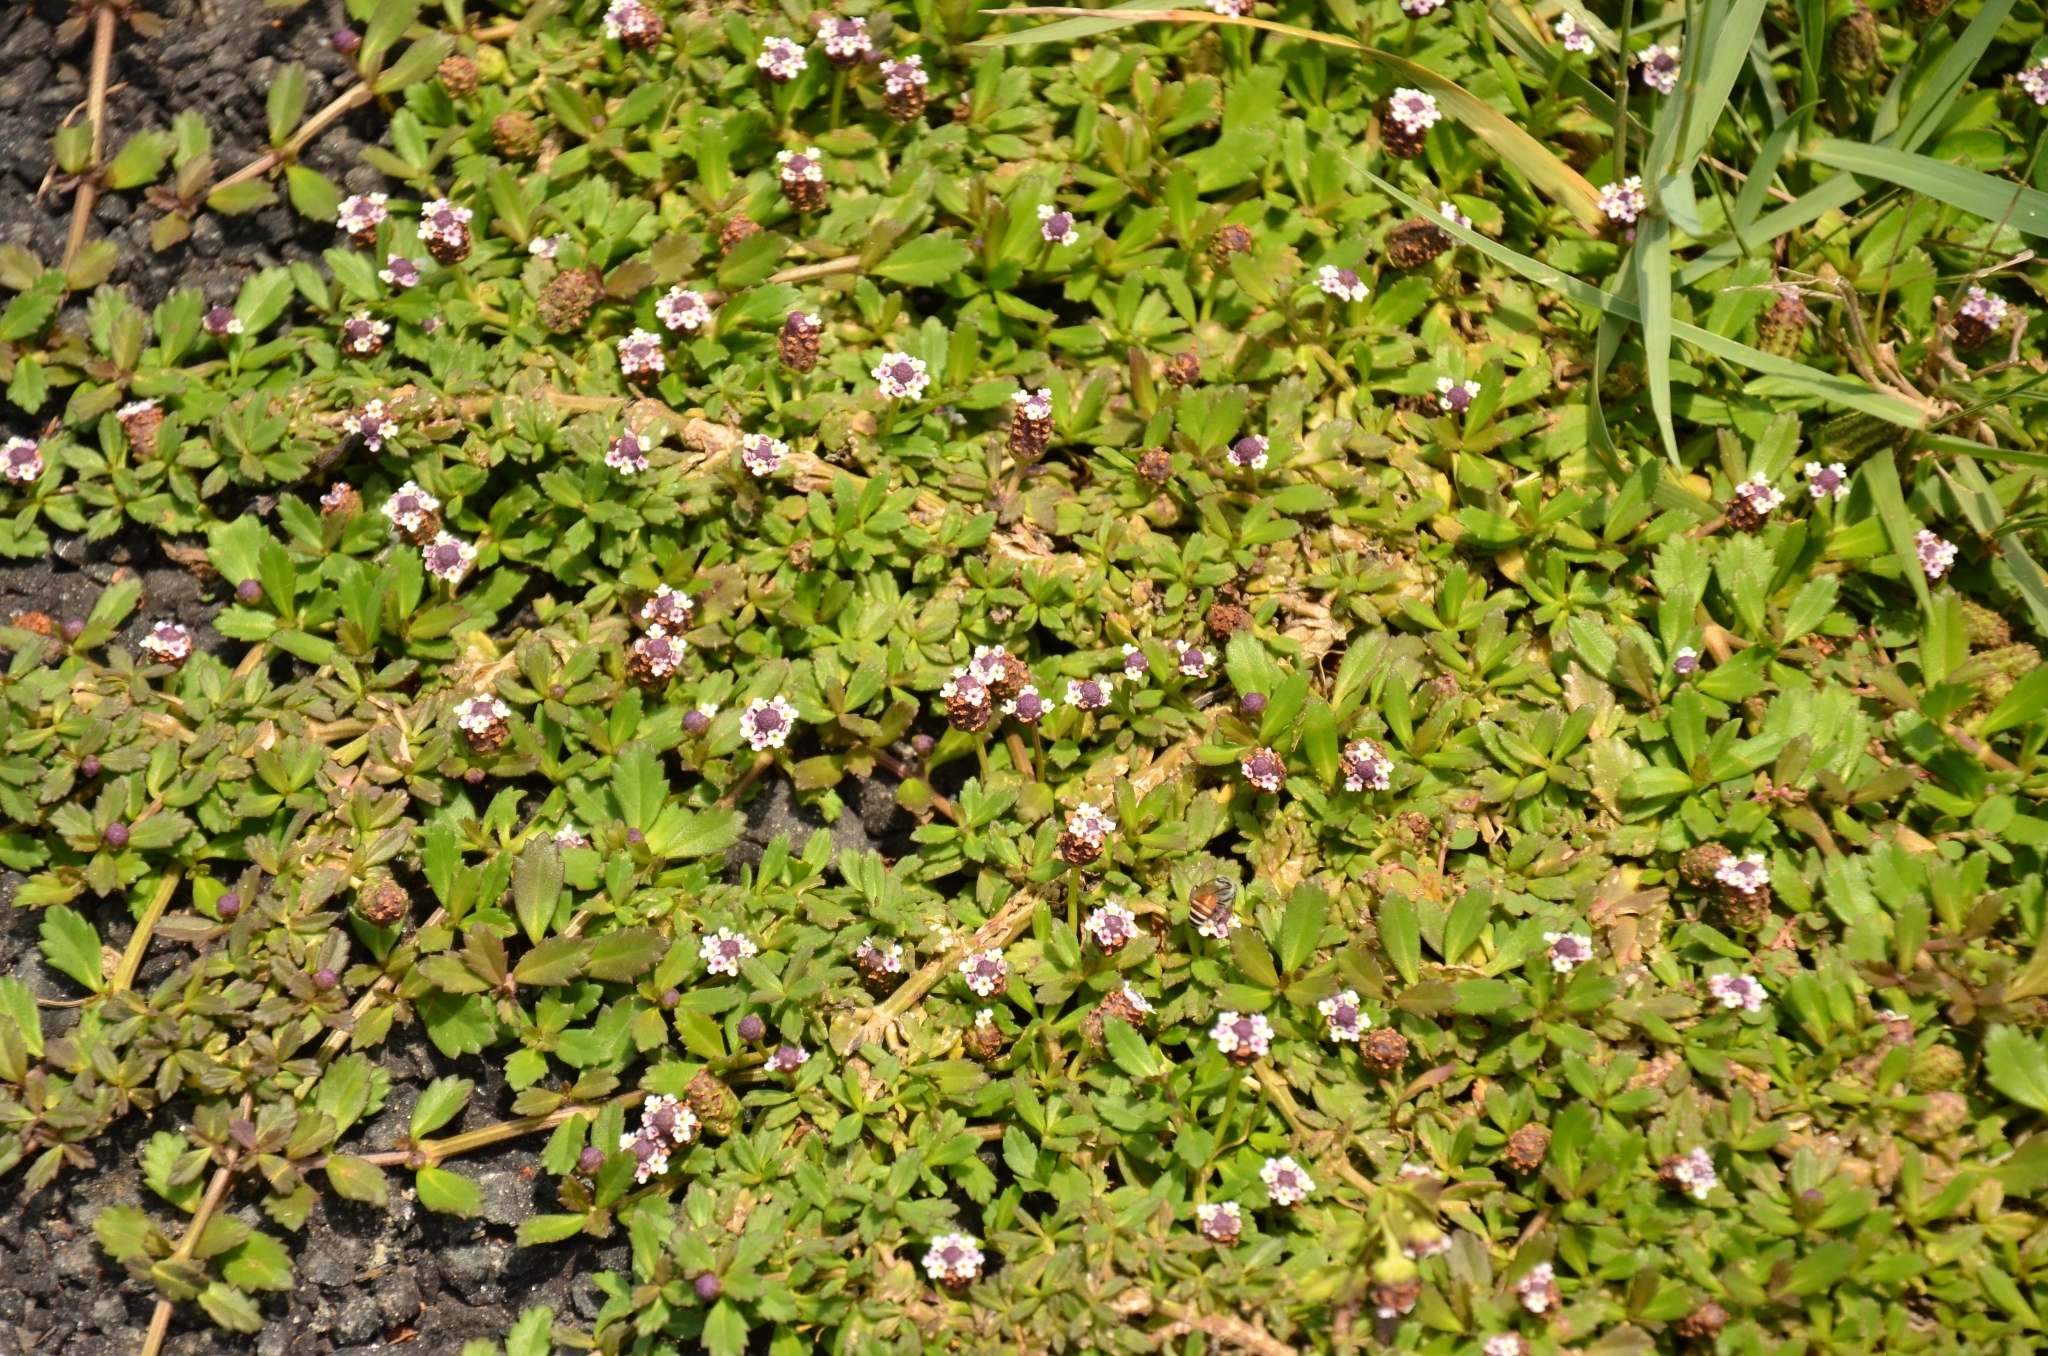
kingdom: Plantae
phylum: Tracheophyta
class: Magnoliopsida
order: Lamiales
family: Verbenaceae
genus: Phyla
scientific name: Phyla nodiflora
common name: Frogfruit
